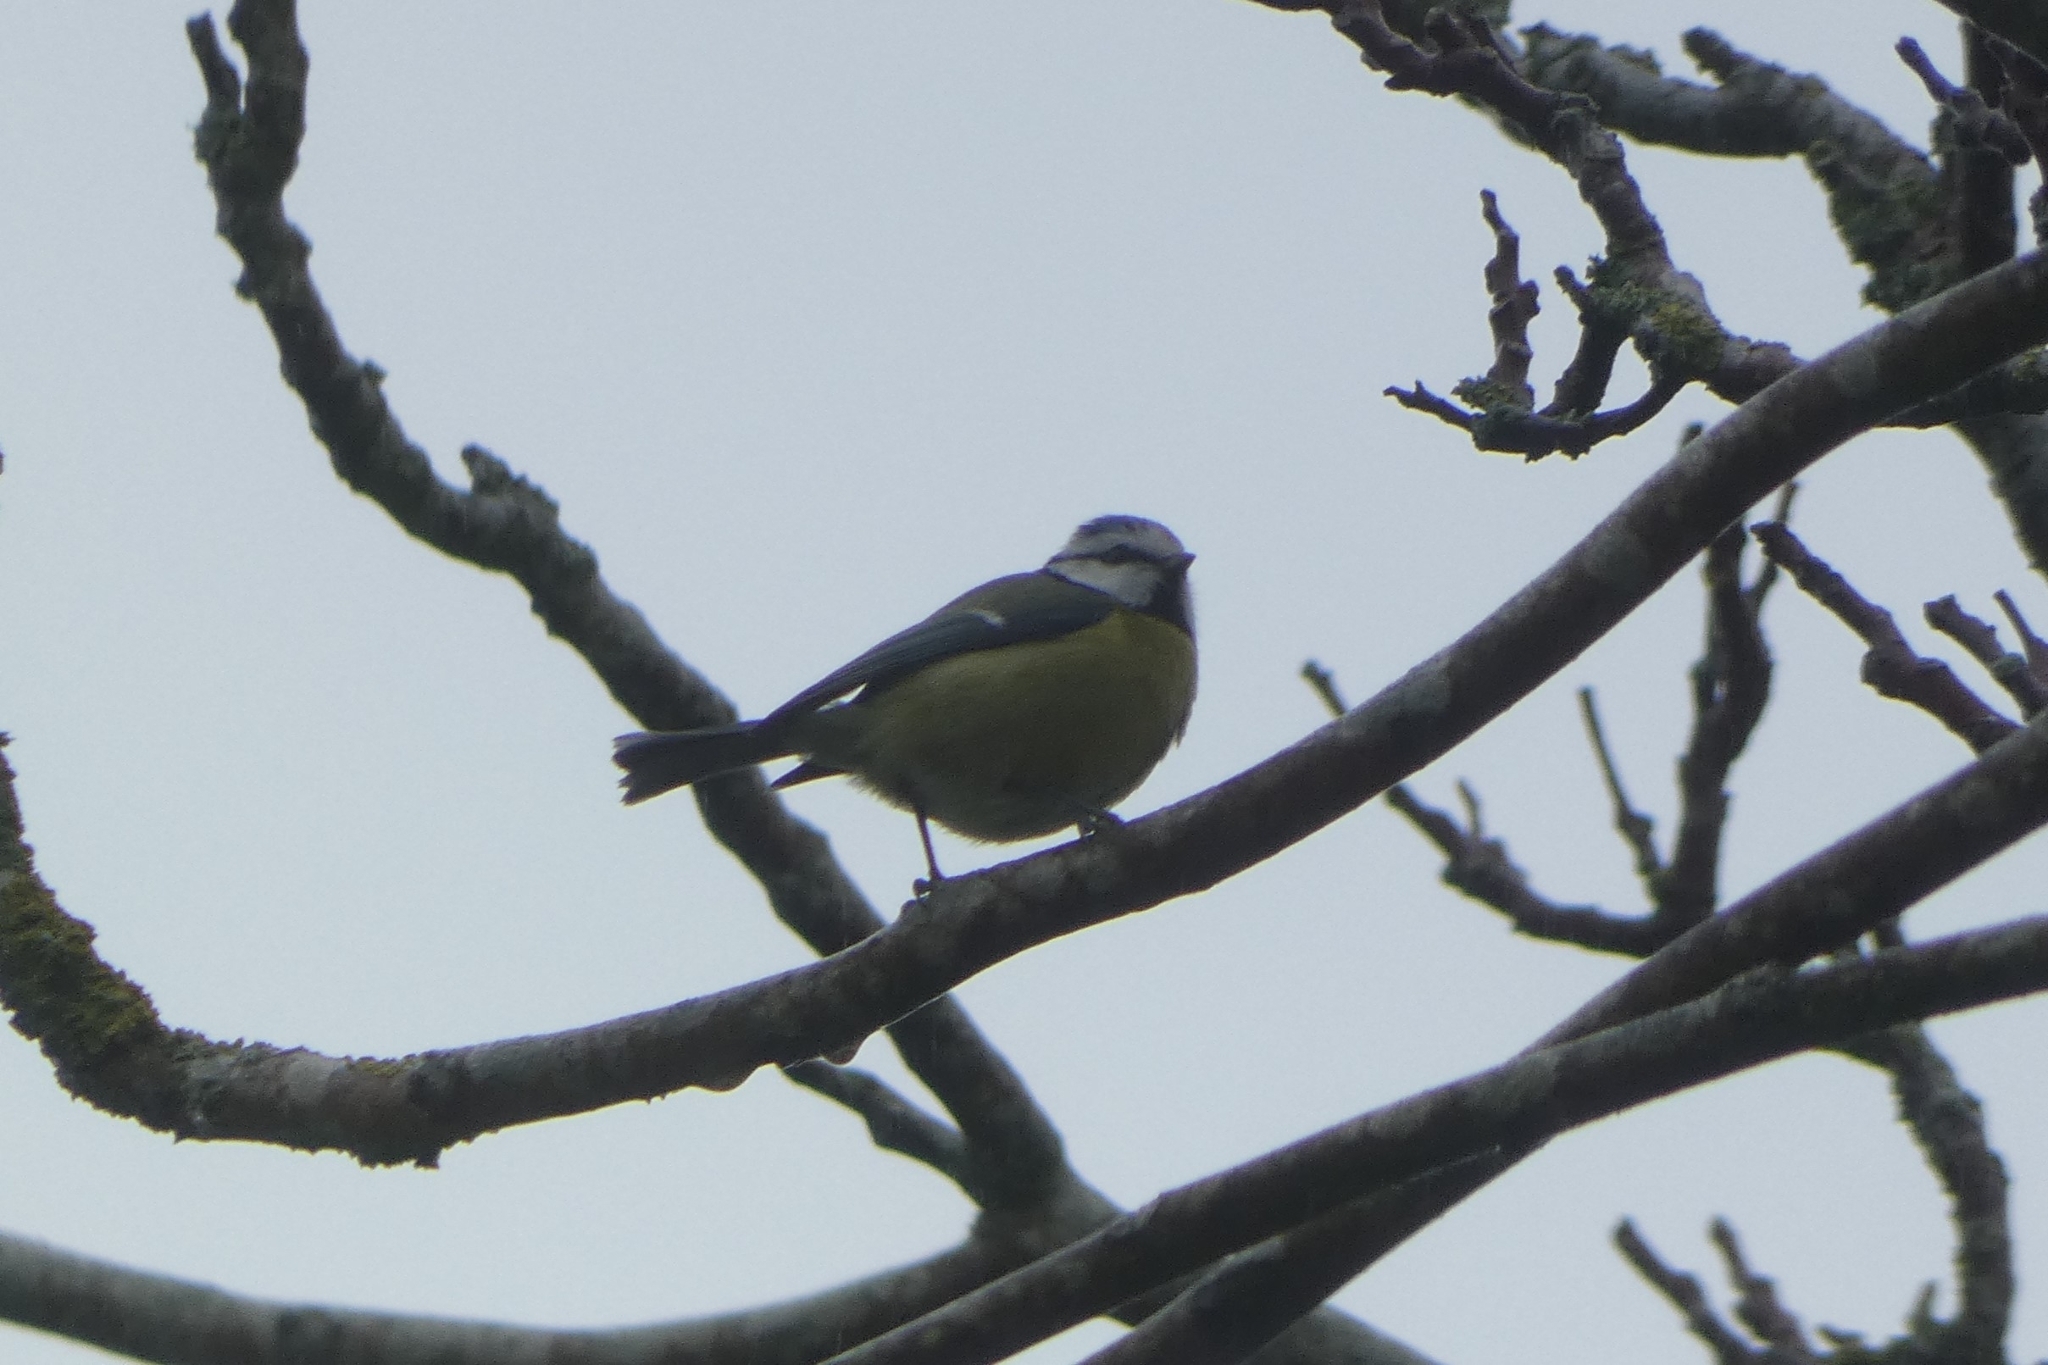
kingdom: Animalia
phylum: Chordata
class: Aves
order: Passeriformes
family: Paridae
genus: Cyanistes
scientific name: Cyanistes caeruleus
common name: Eurasian blue tit
